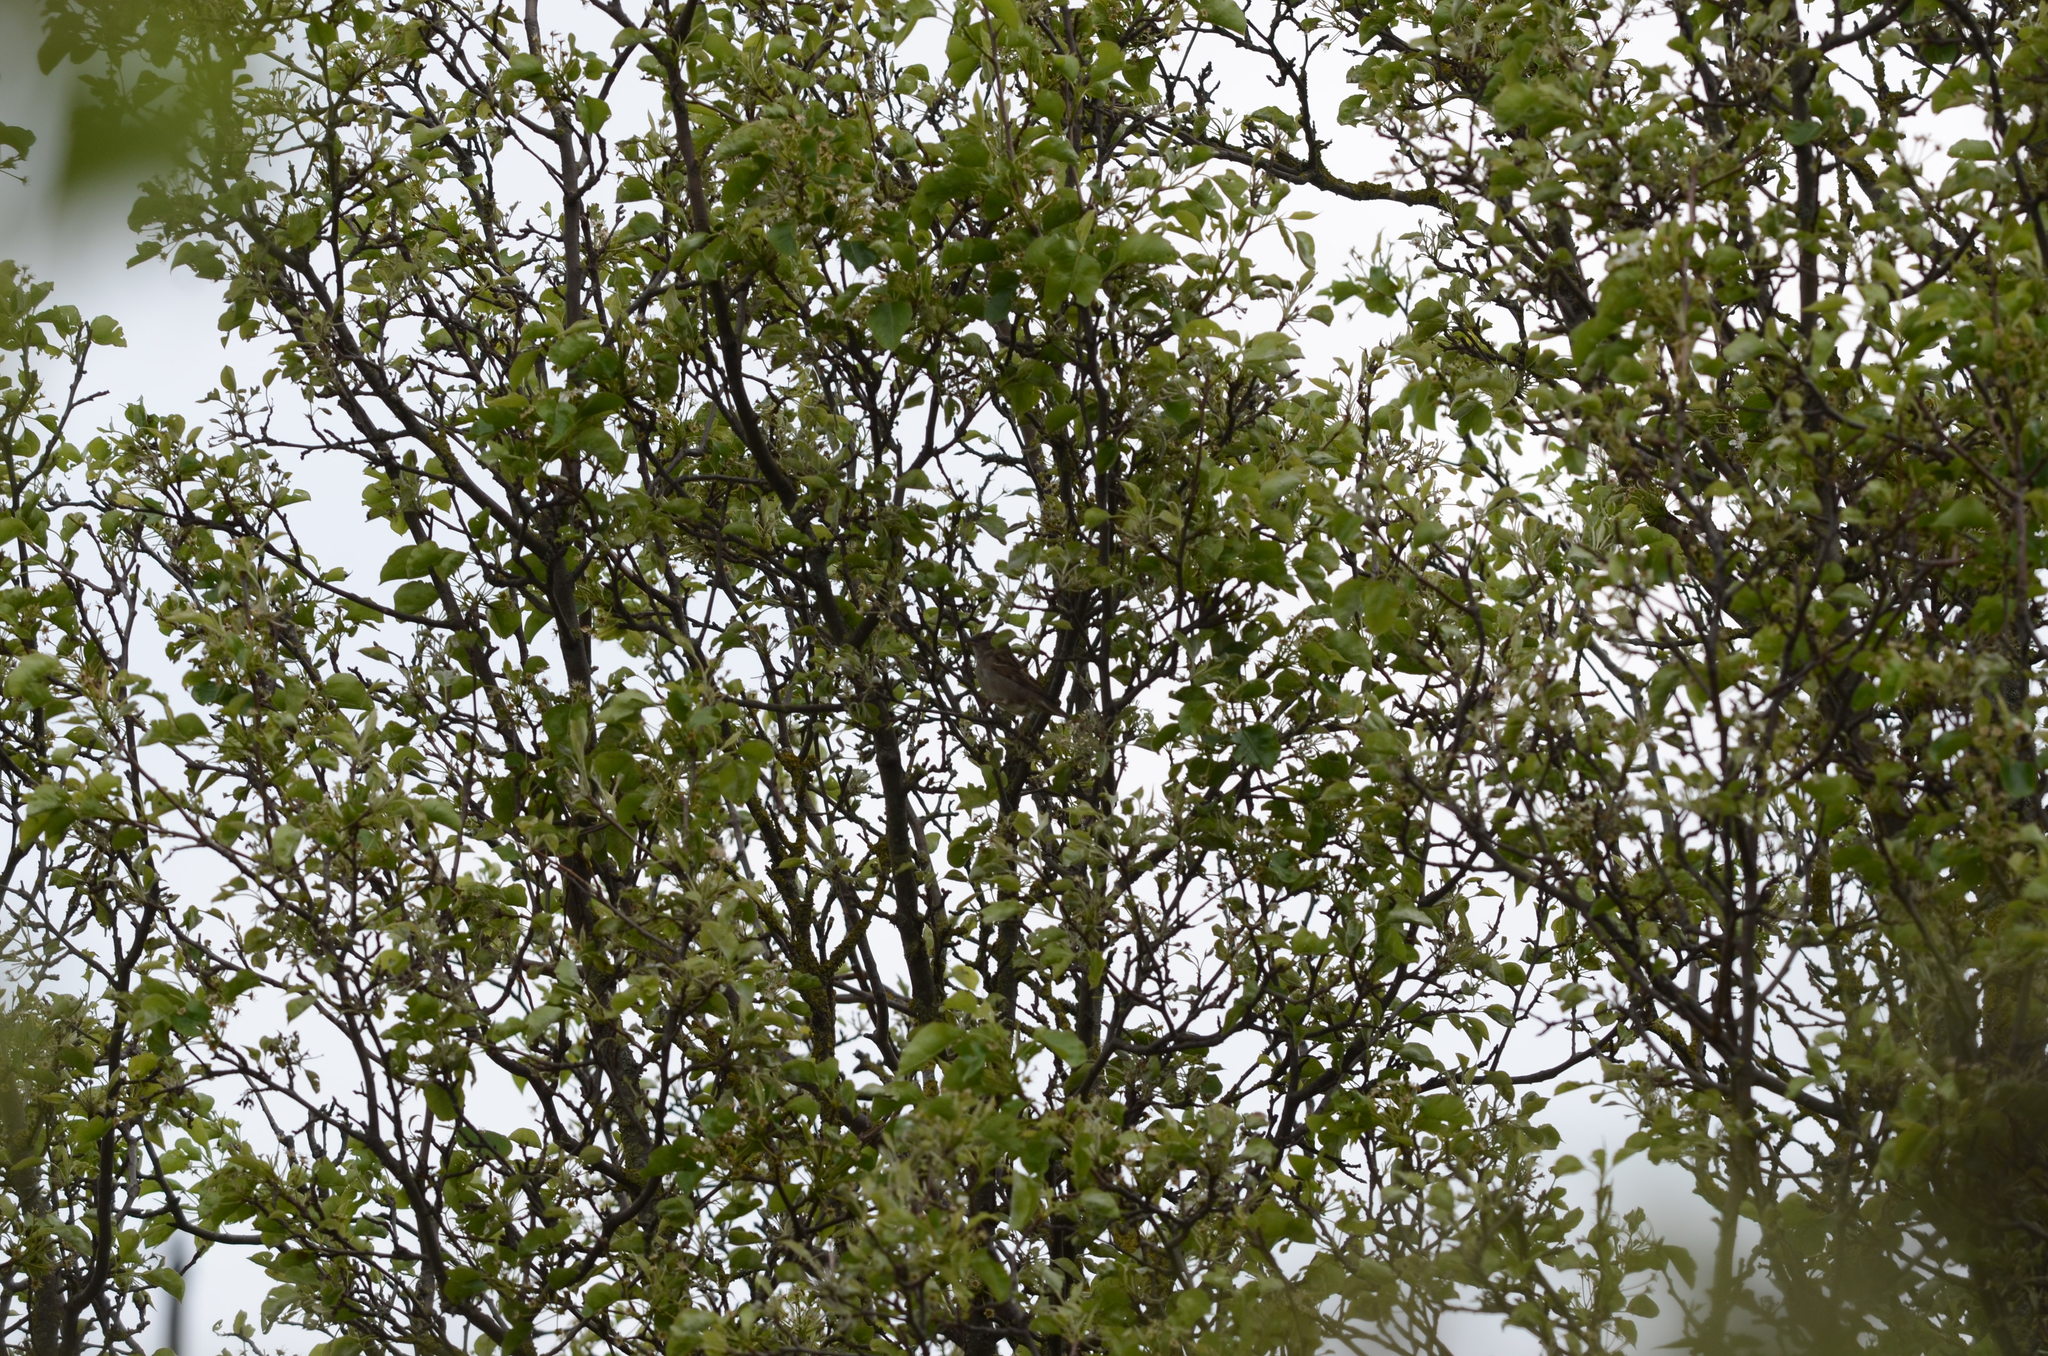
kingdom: Animalia
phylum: Chordata
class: Aves
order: Passeriformes
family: Passeridae
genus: Passer
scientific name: Passer domesticus
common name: House sparrow
